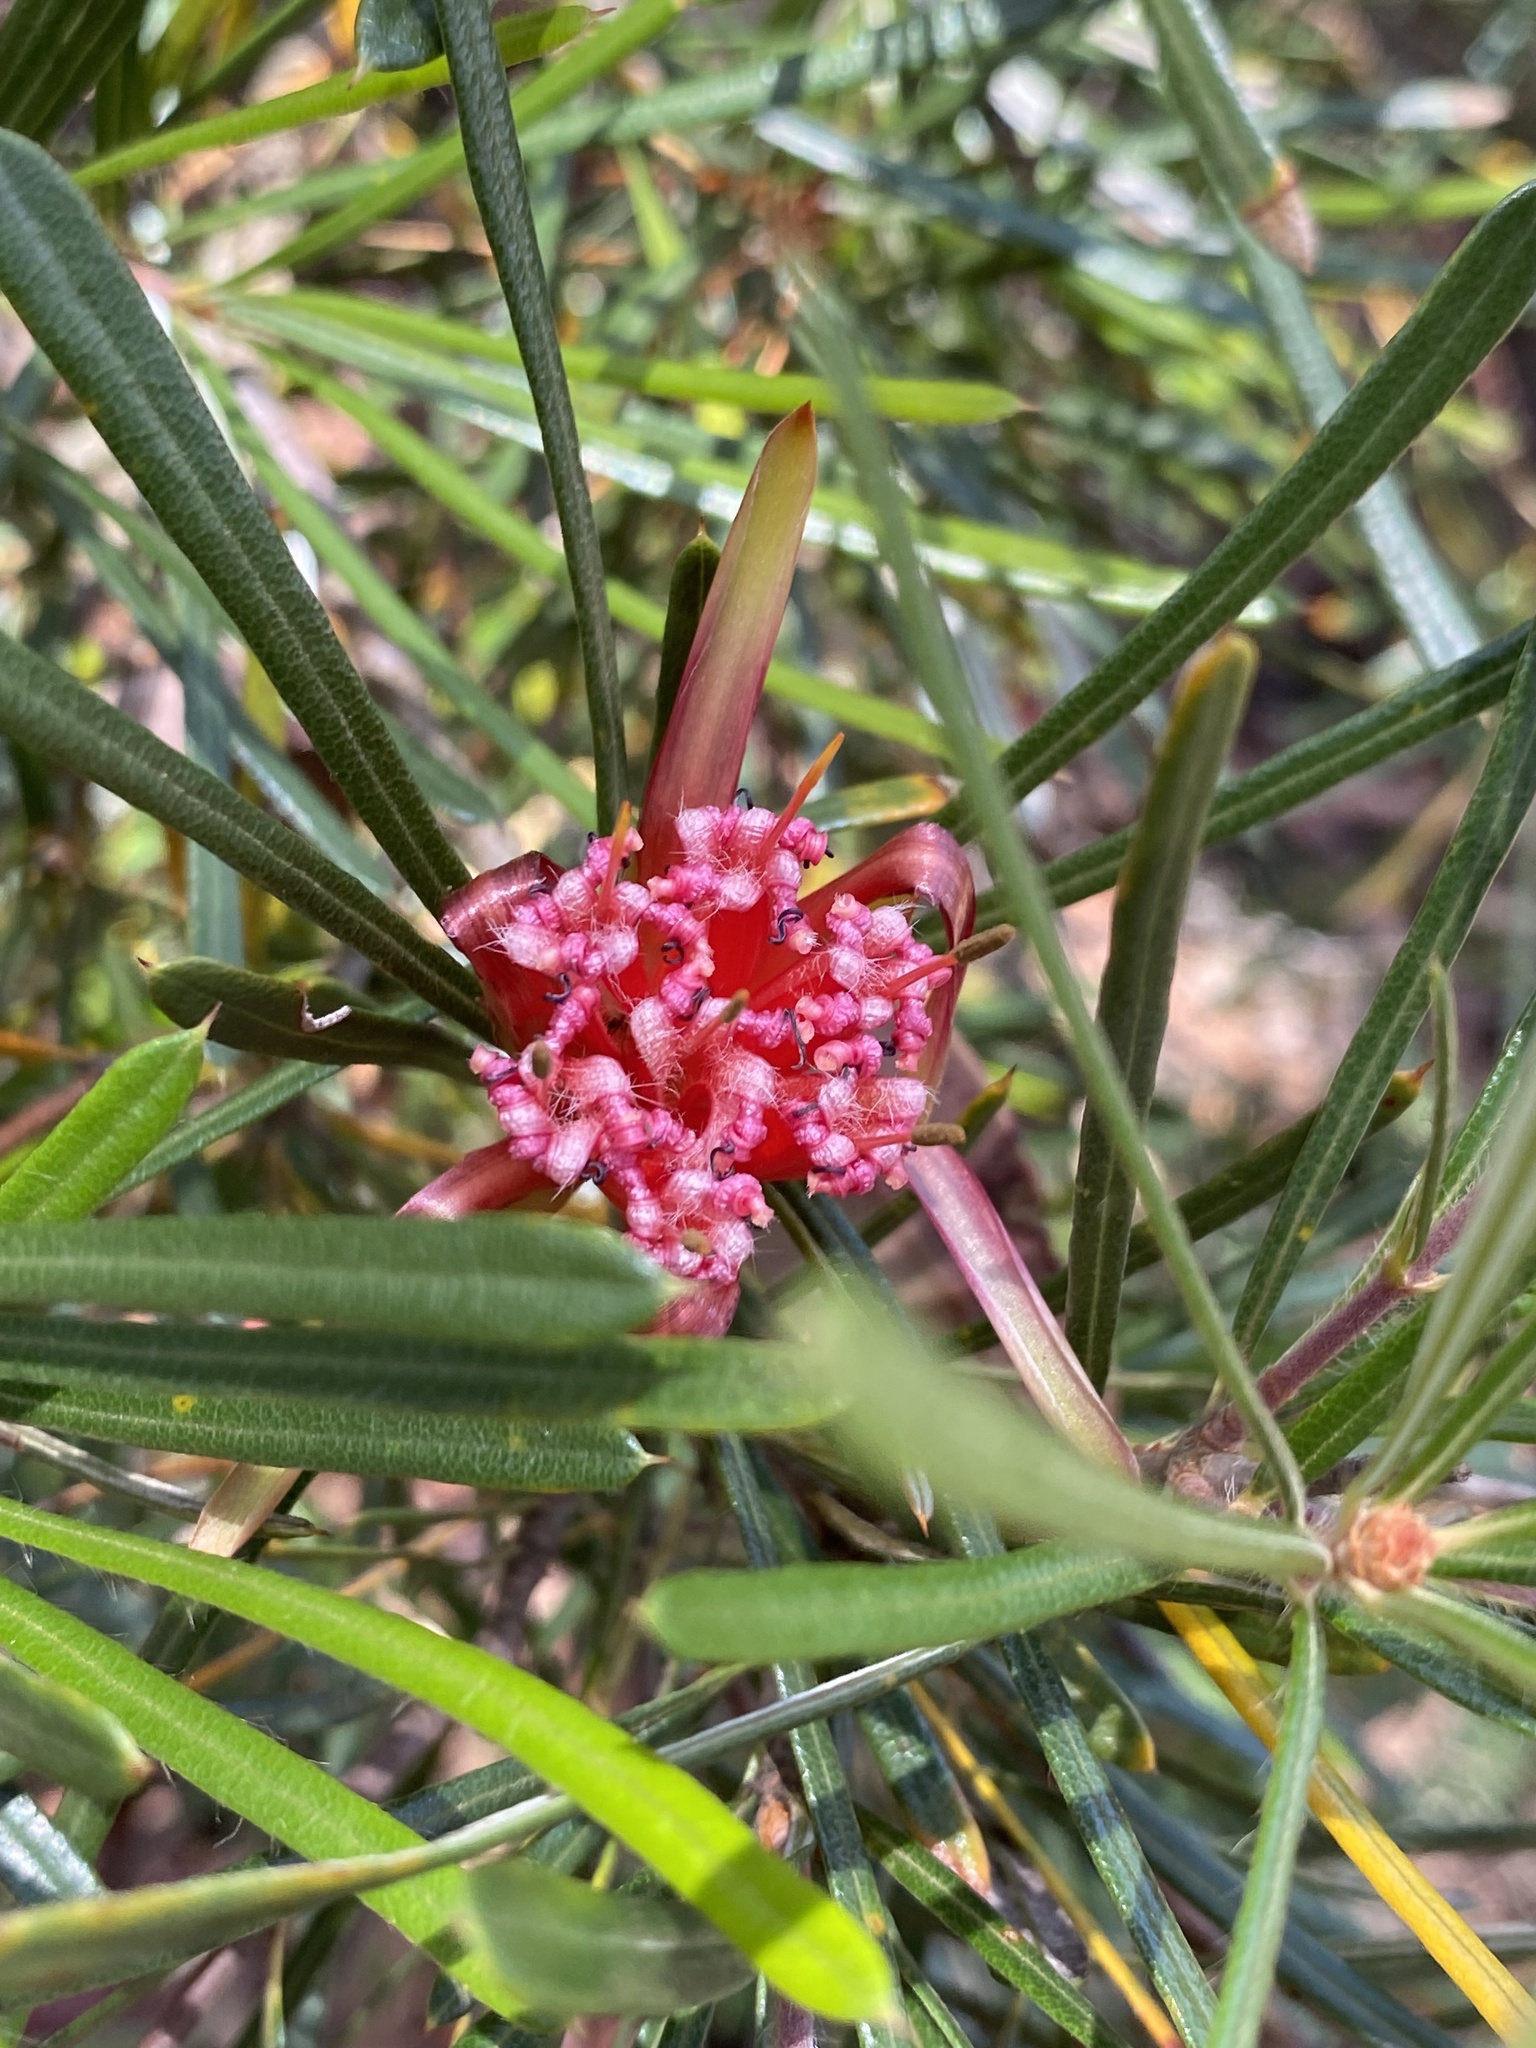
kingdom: Plantae
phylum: Tracheophyta
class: Magnoliopsida
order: Proteales
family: Proteaceae
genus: Lambertia
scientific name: Lambertia formosa
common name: Mountain-devil
